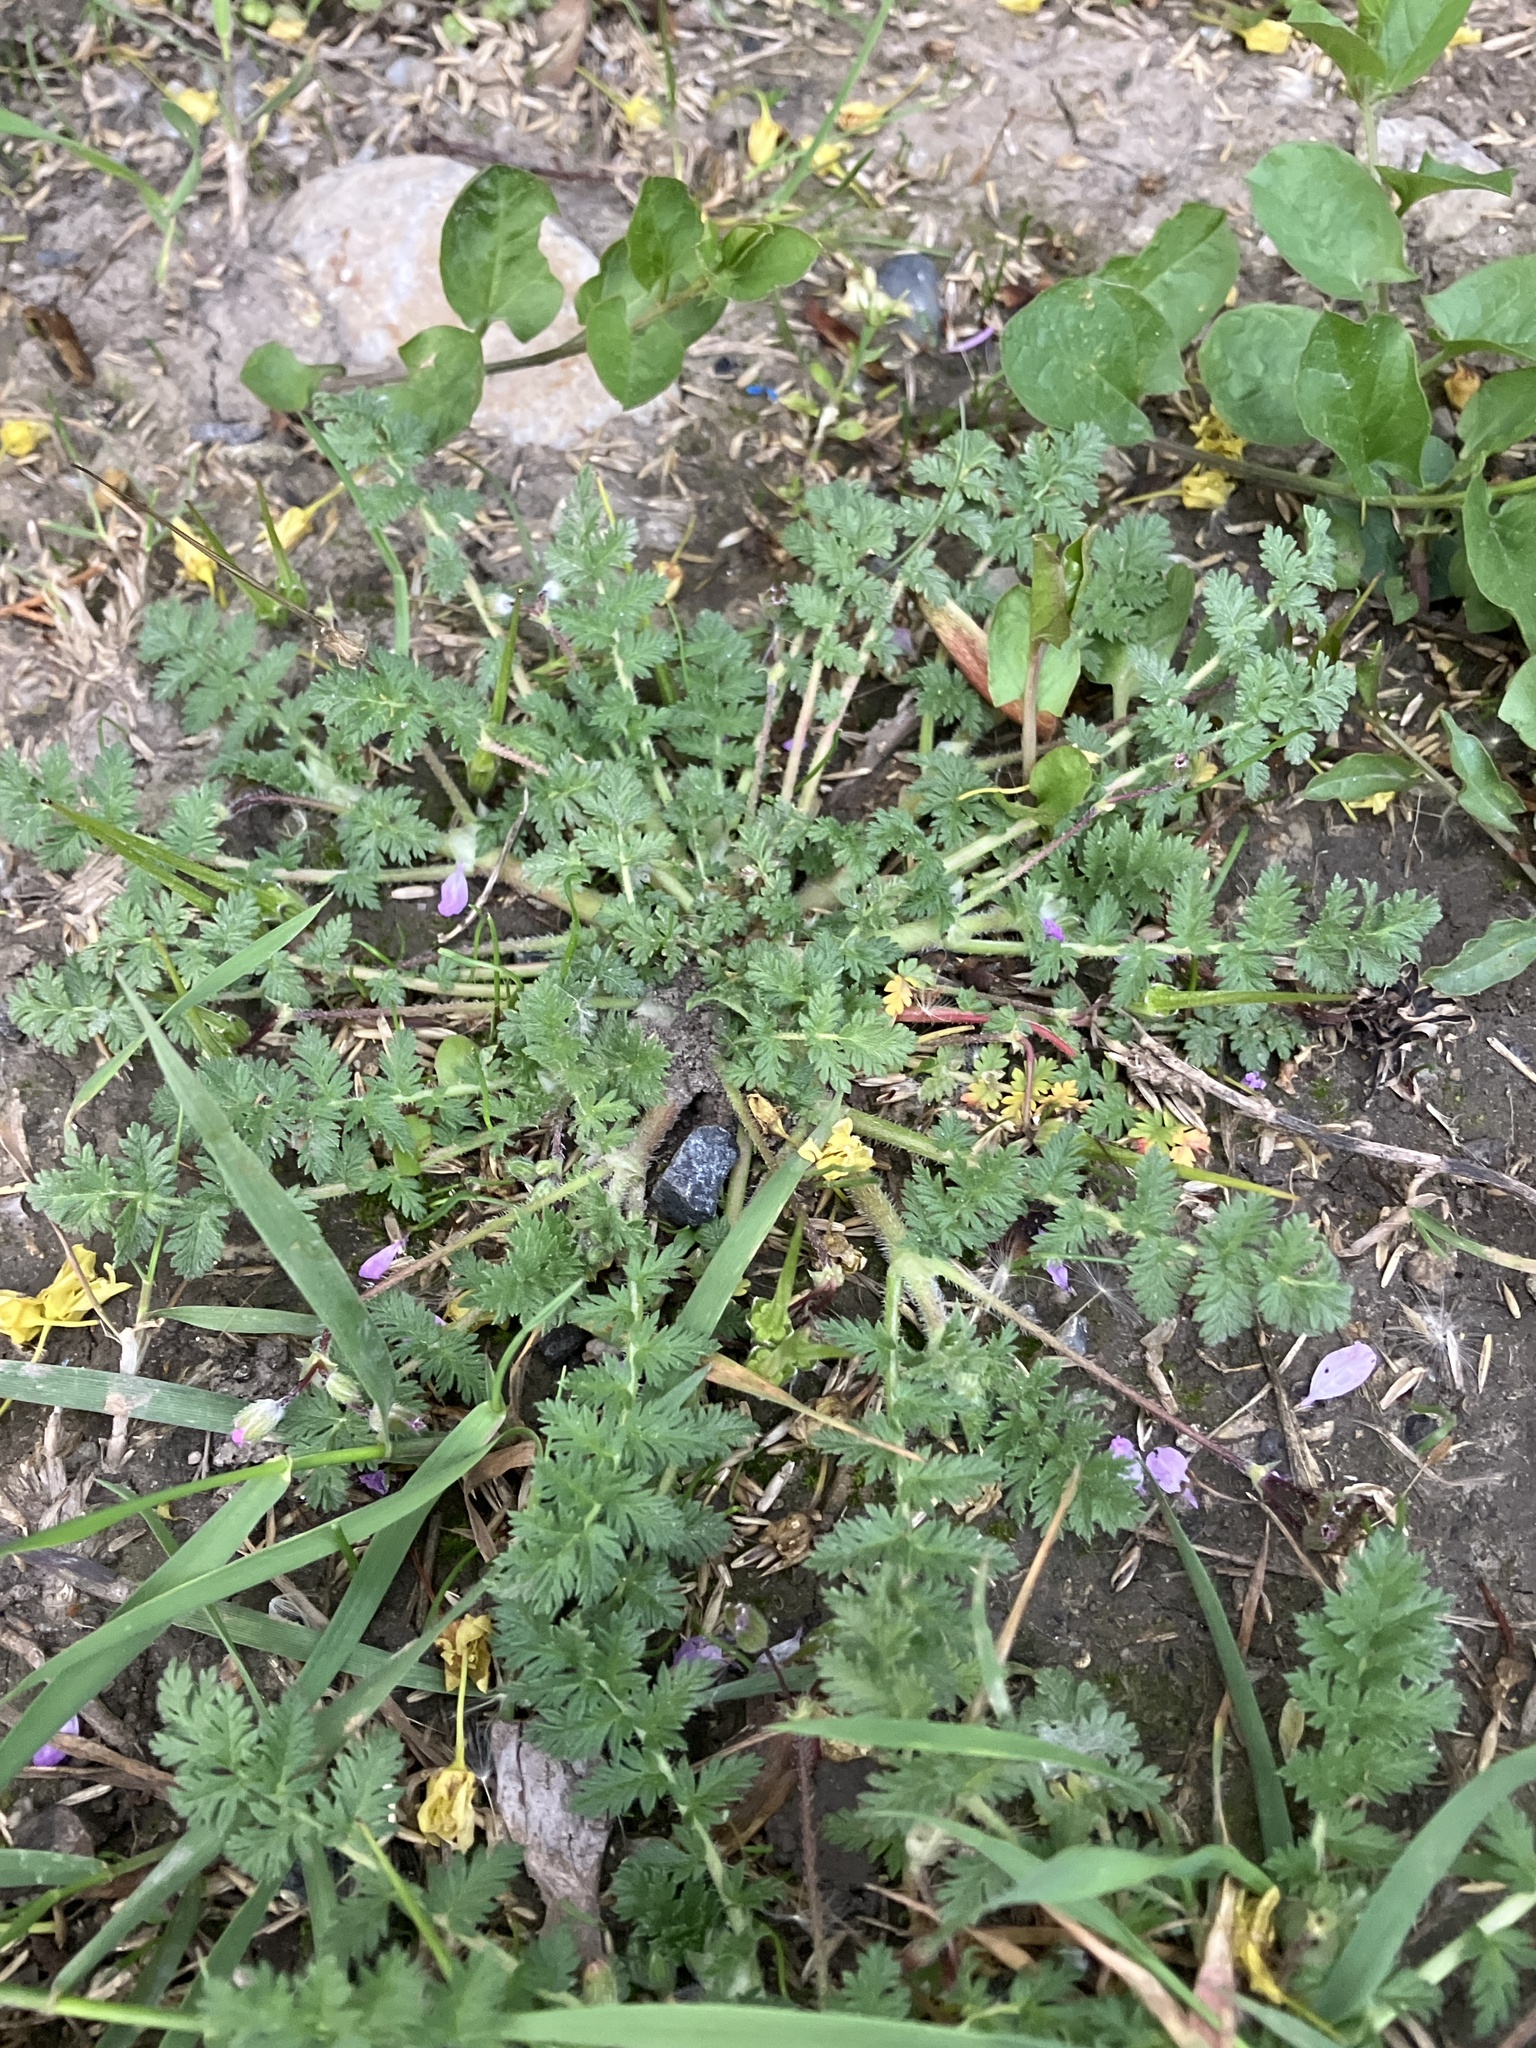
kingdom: Plantae
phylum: Tracheophyta
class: Magnoliopsida
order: Geraniales
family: Geraniaceae
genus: Erodium
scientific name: Erodium cicutarium
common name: Common stork's-bill
